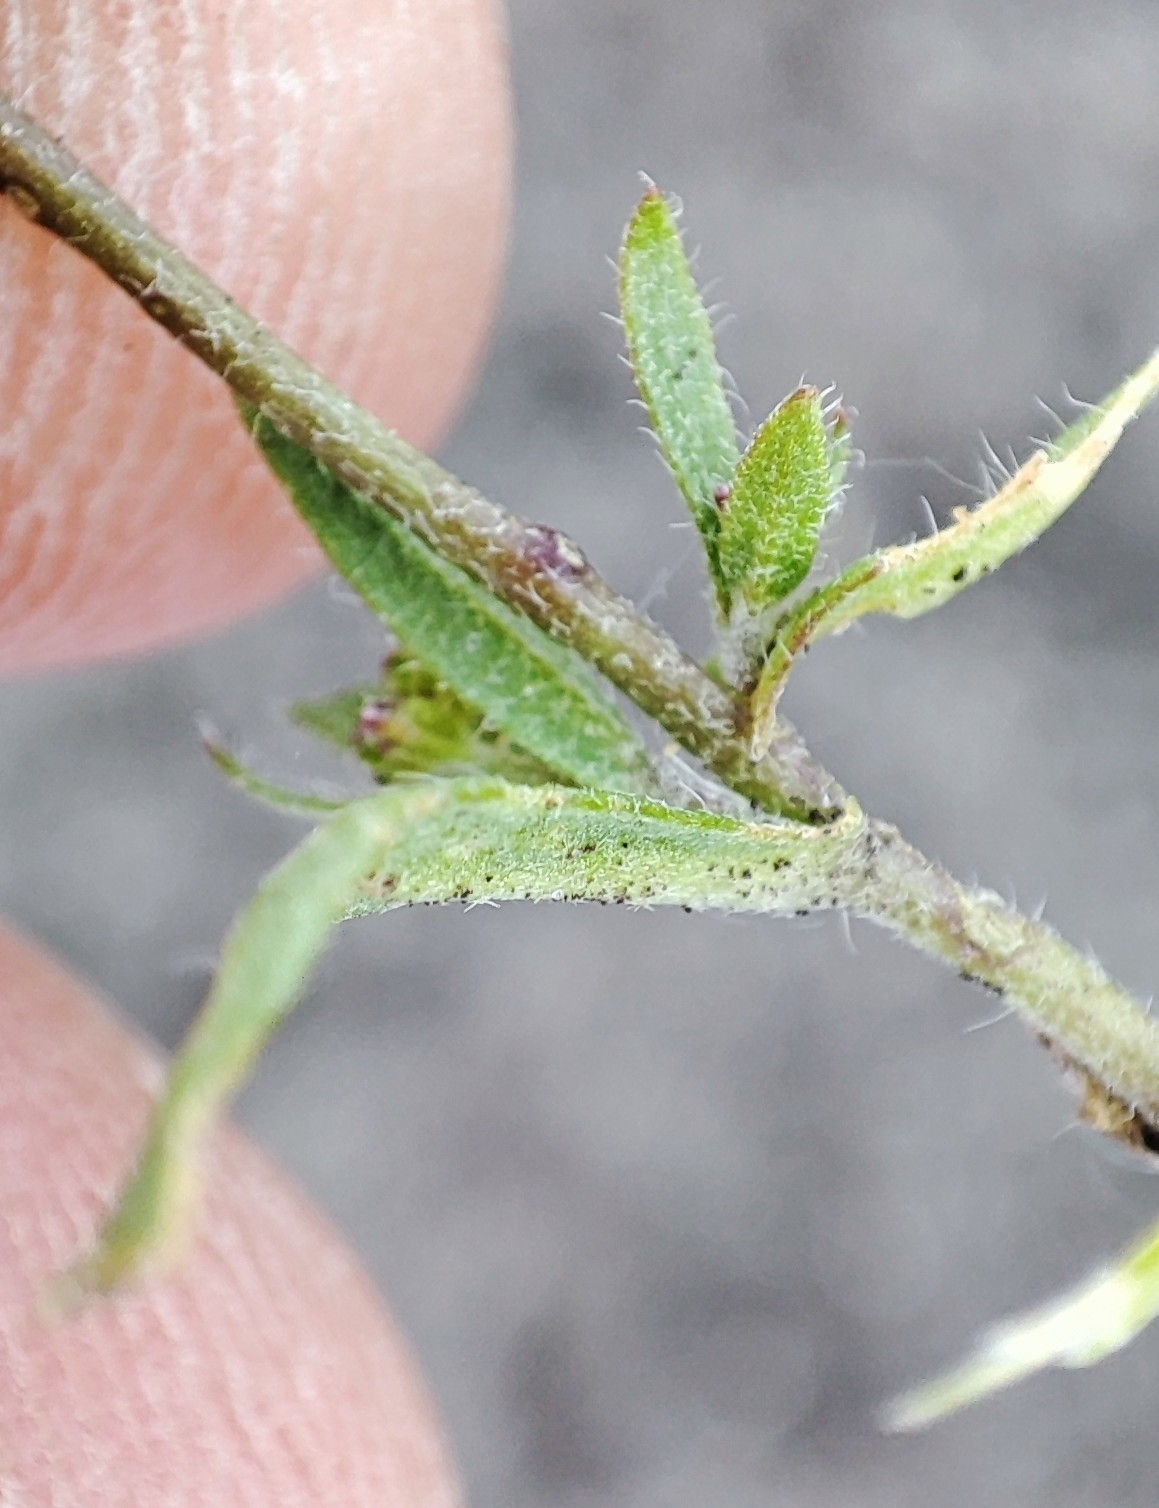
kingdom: Plantae
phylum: Tracheophyta
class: Magnoliopsida
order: Brassicales
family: Brassicaceae
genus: Capsella
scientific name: Capsella bursa-pastoris
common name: Shepherd's purse
